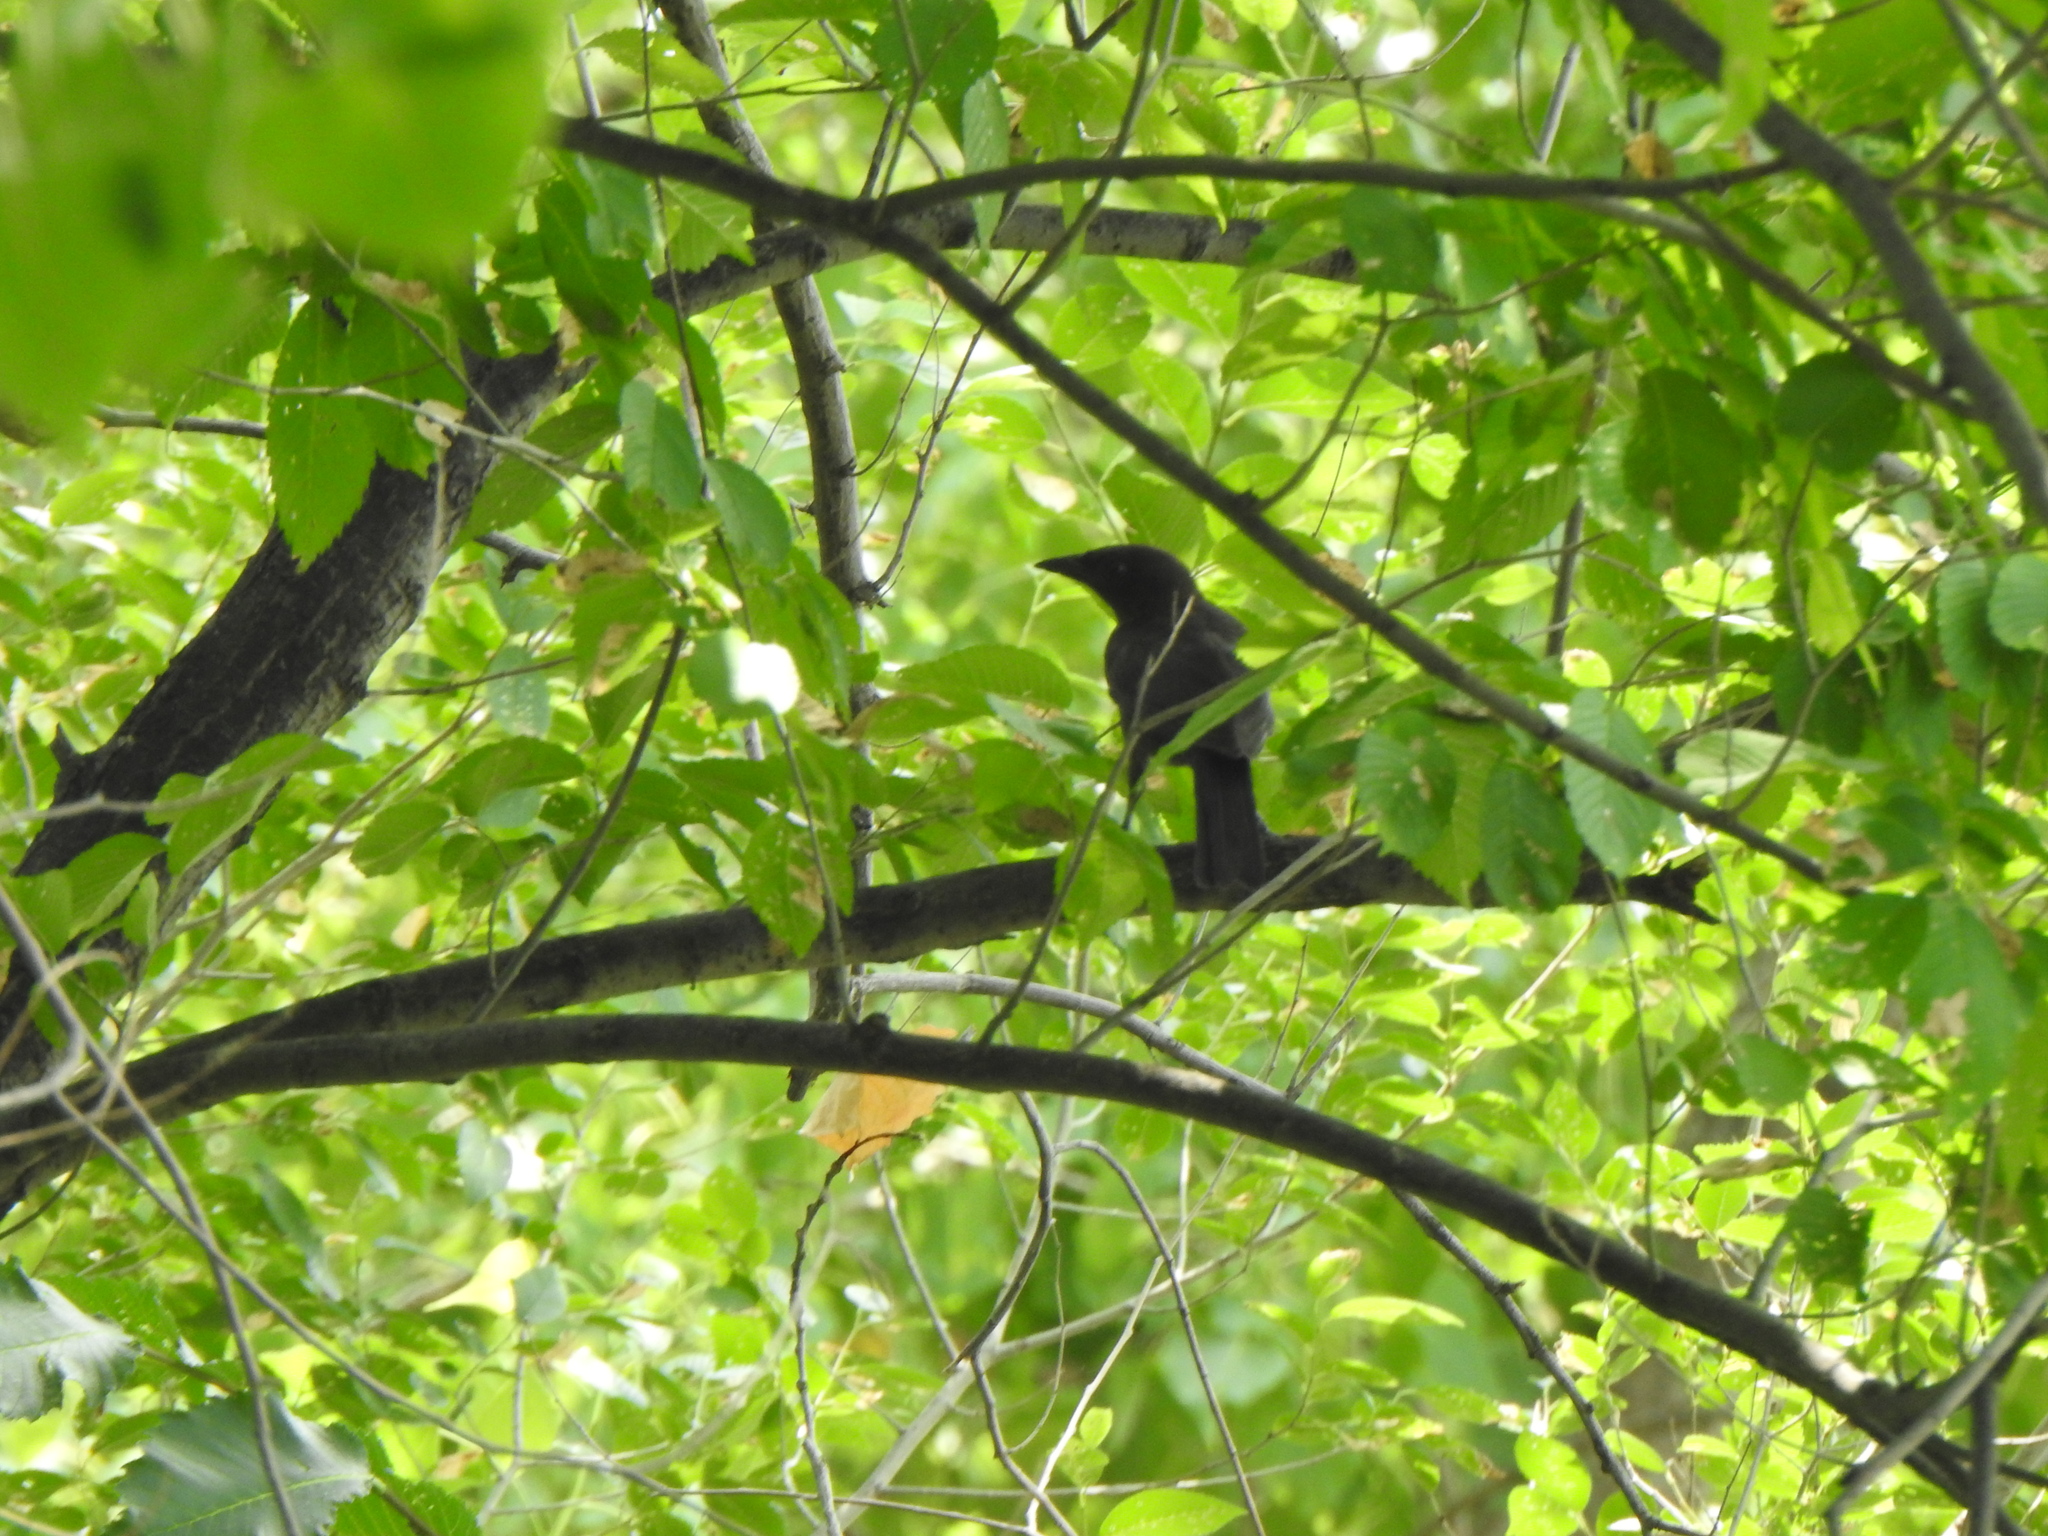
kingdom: Animalia
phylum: Chordata
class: Aves
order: Passeriformes
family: Icteridae
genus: Quiscalus
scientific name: Quiscalus quiscula
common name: Common grackle
